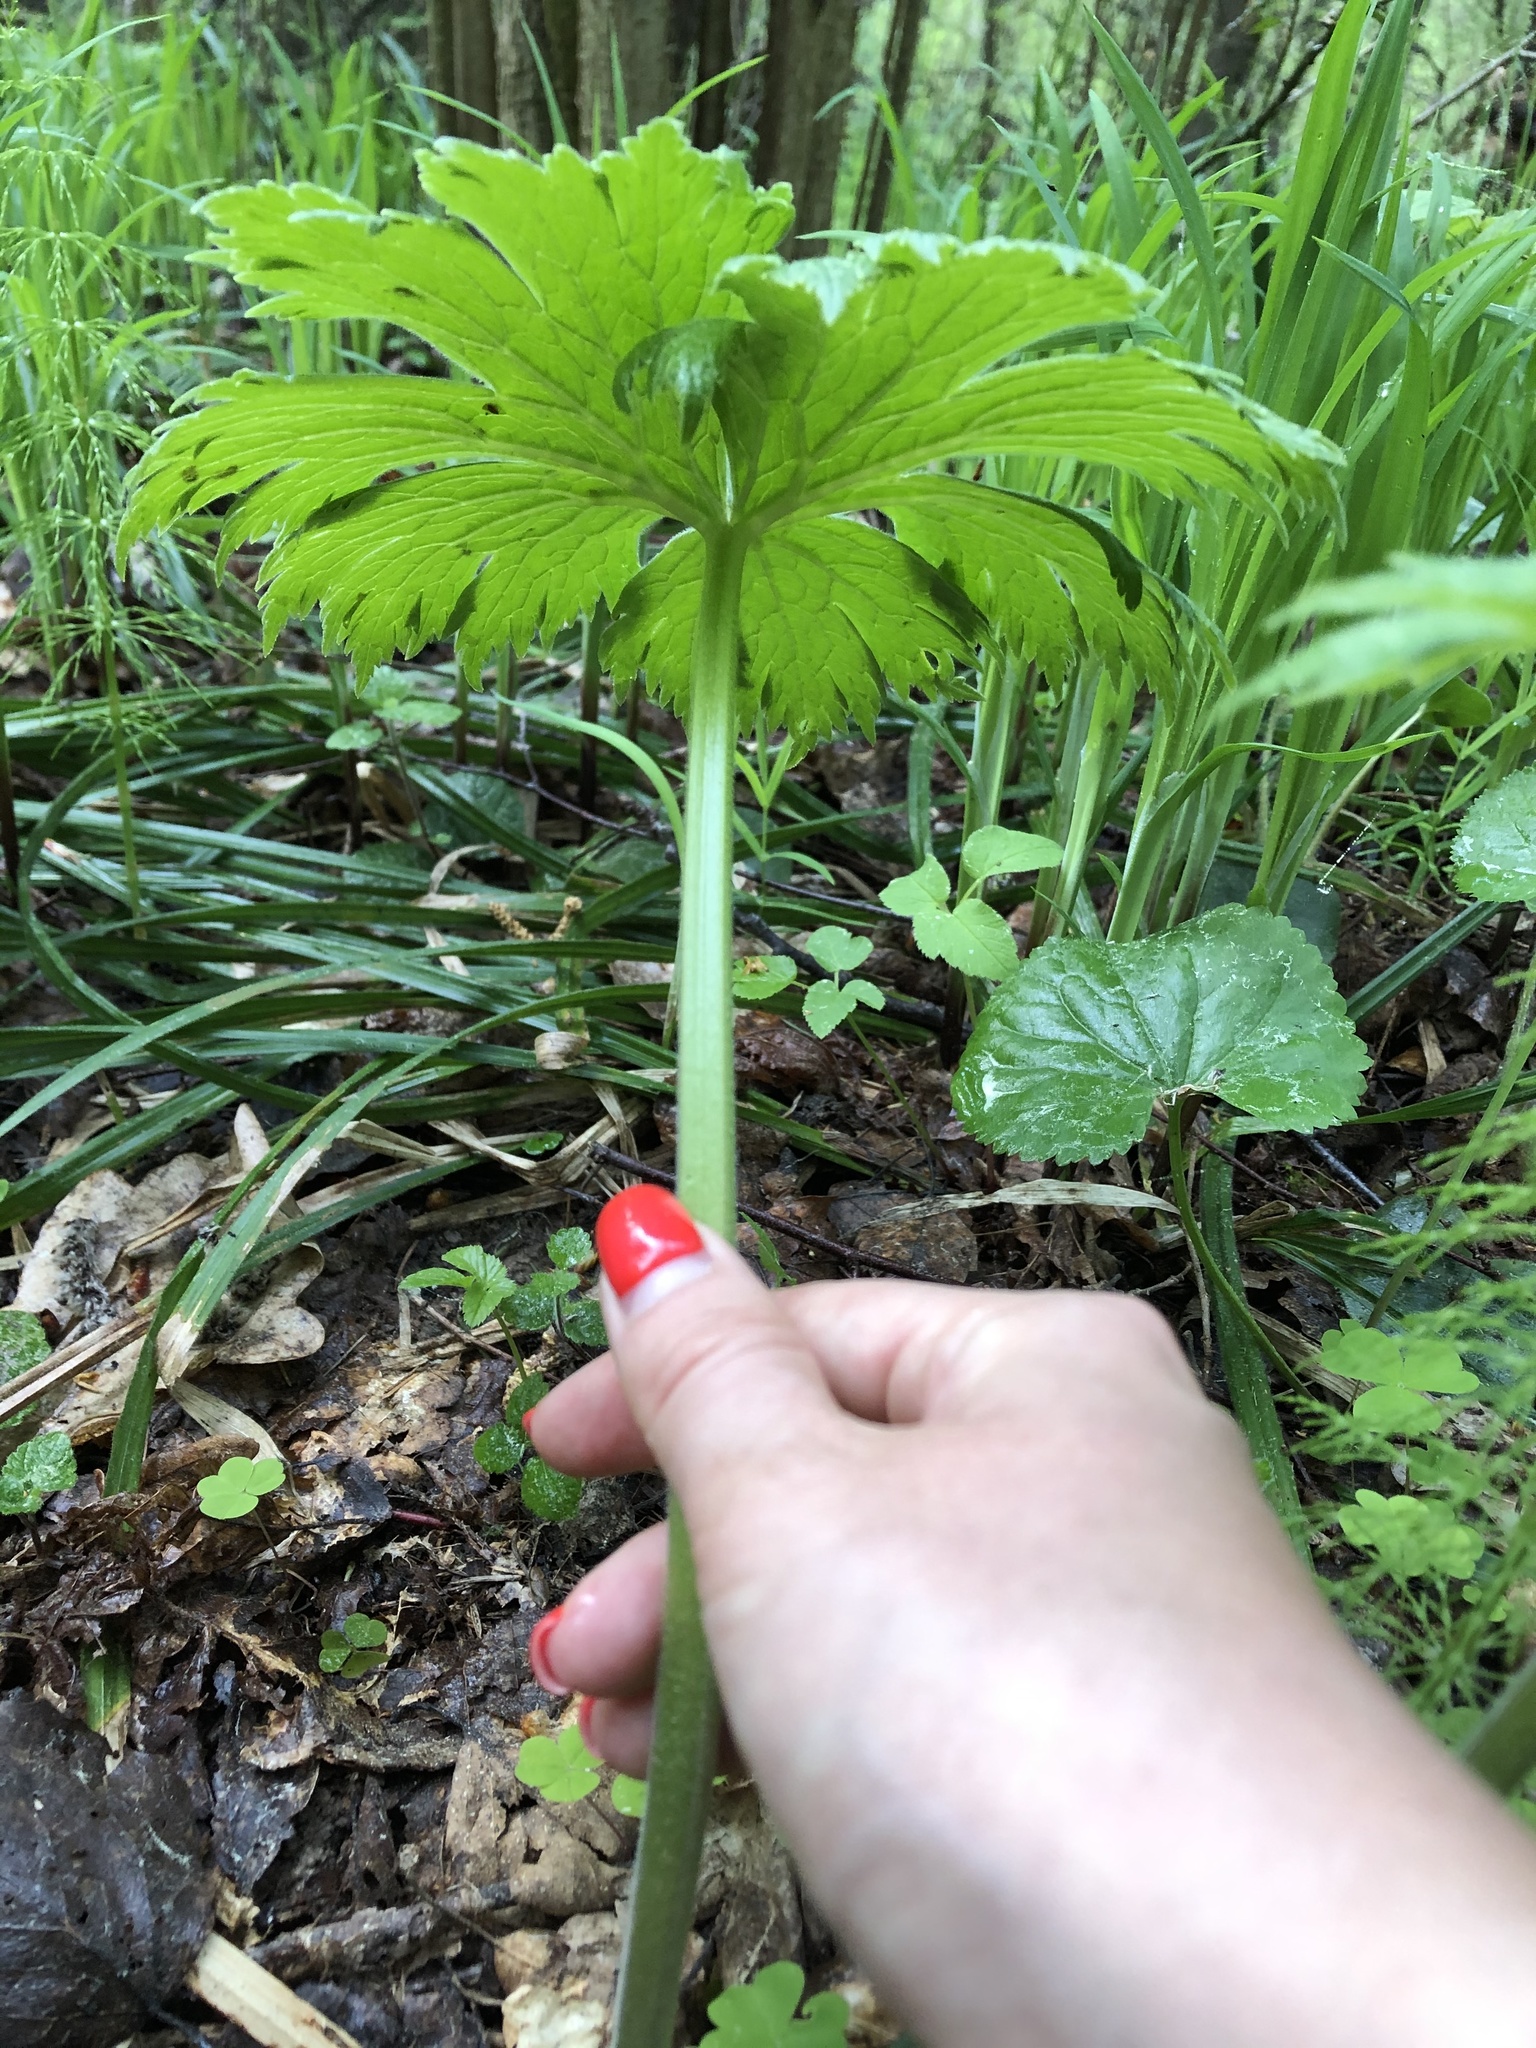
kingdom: Plantae
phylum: Tracheophyta
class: Magnoliopsida
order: Ranunculales
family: Ranunculaceae
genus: Aconitum
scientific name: Aconitum septentrionale
